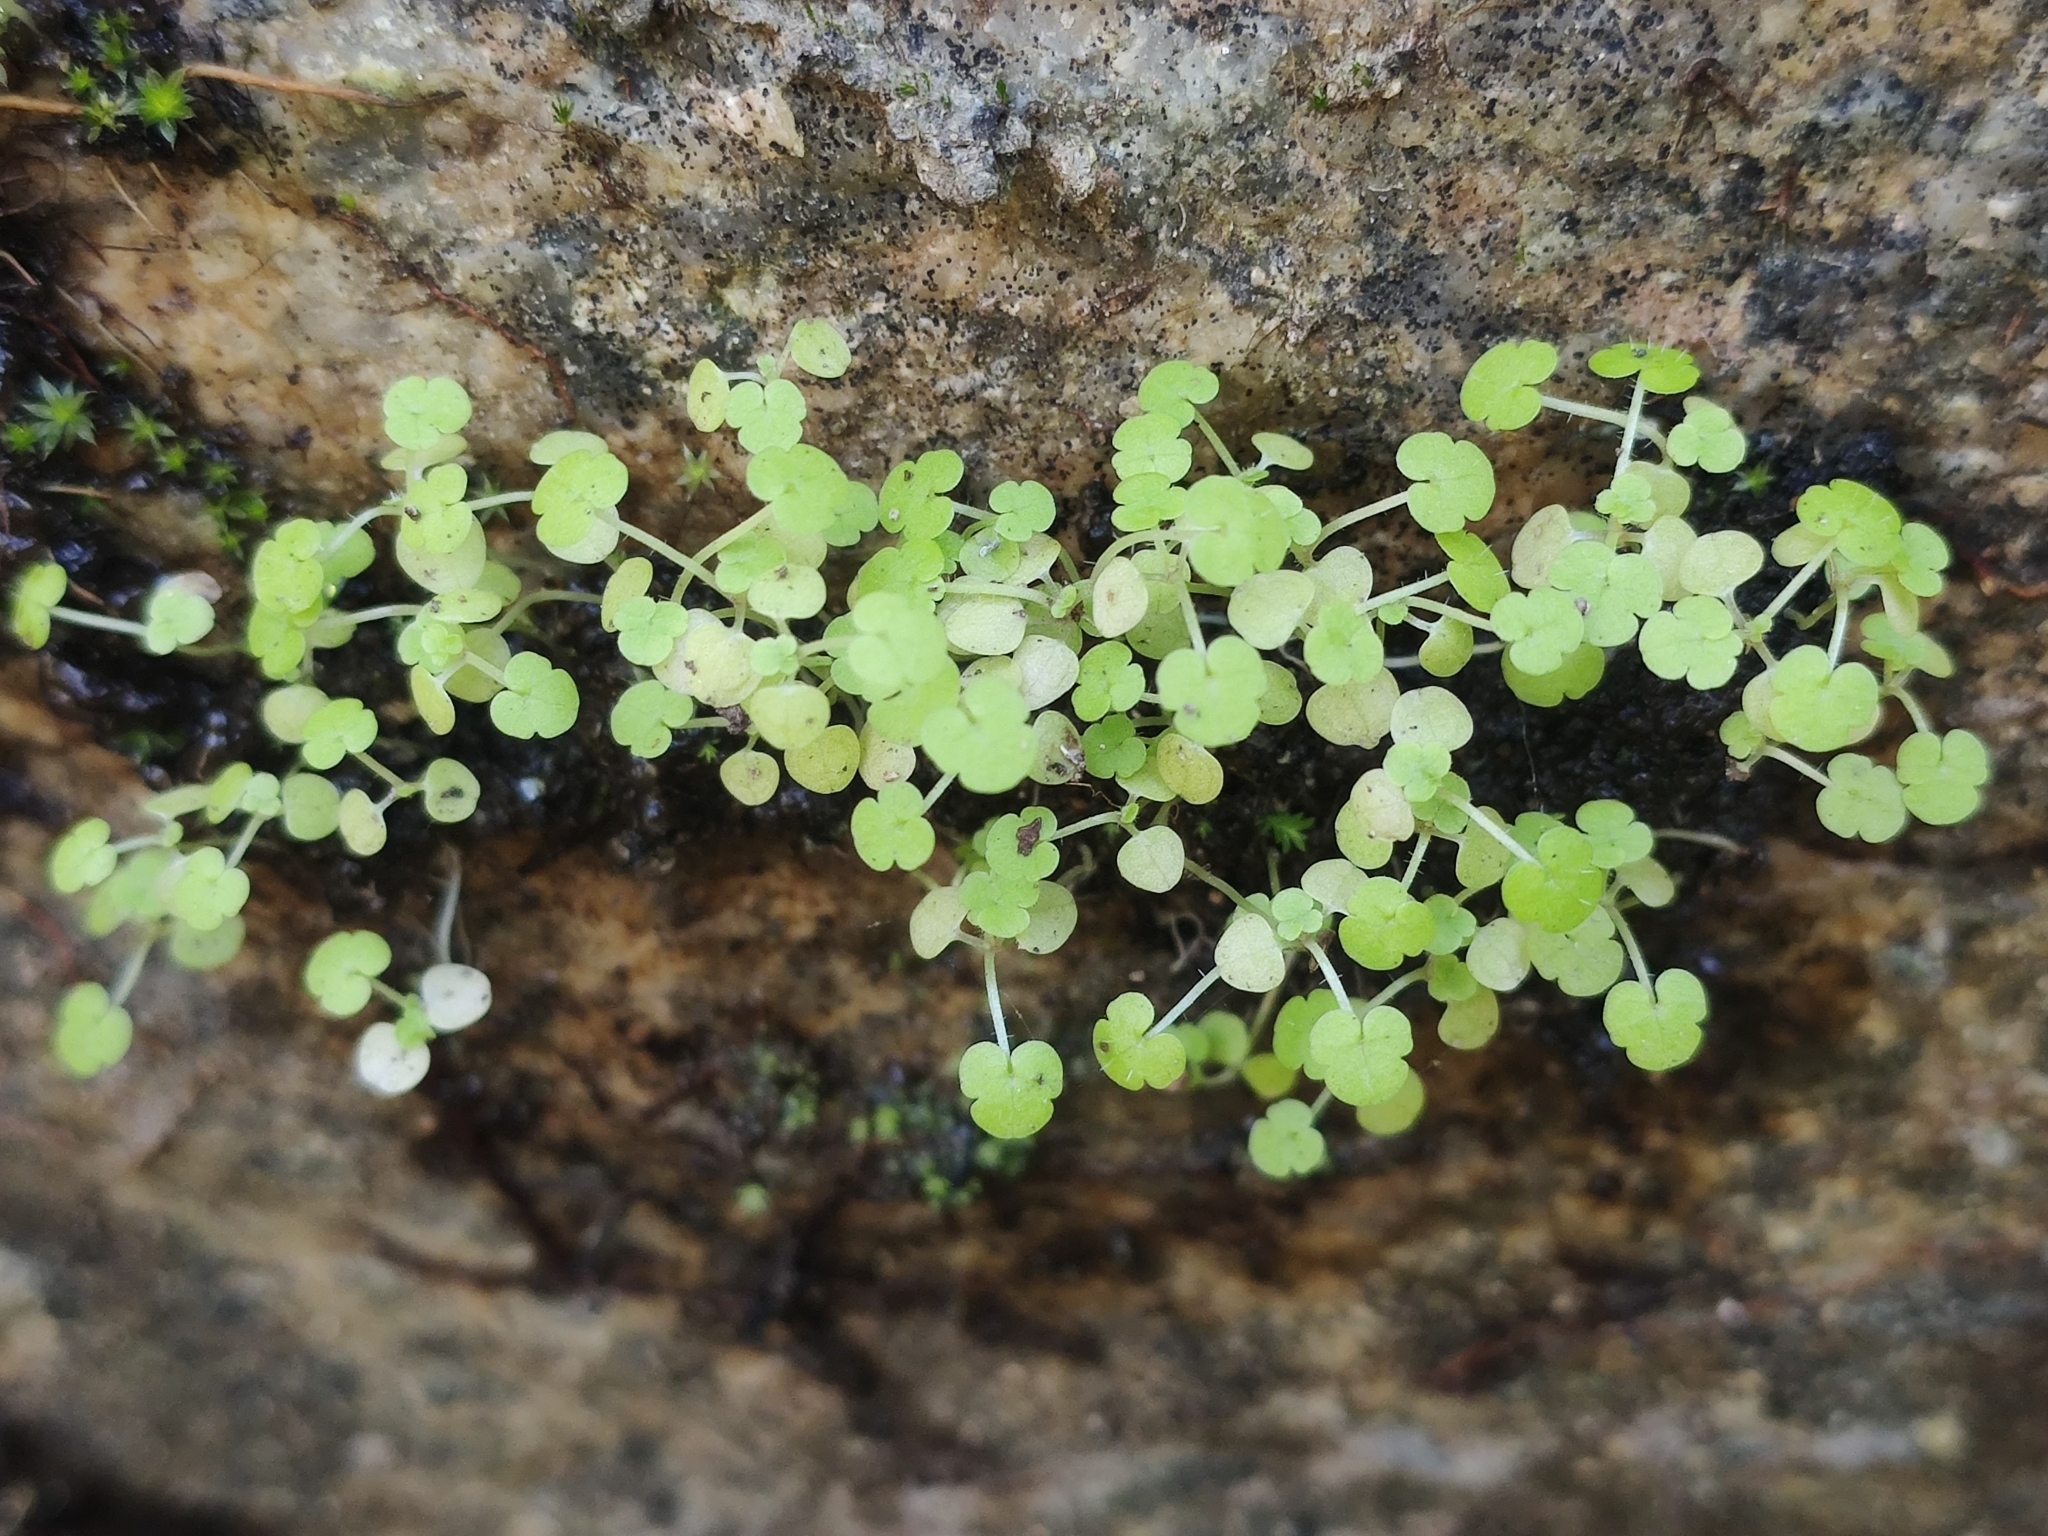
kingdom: Plantae
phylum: Tracheophyta
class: Magnoliopsida
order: Lamiales
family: Plantaginaceae
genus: Sibthorpia
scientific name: Sibthorpia europaea
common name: Cornish moneywort
